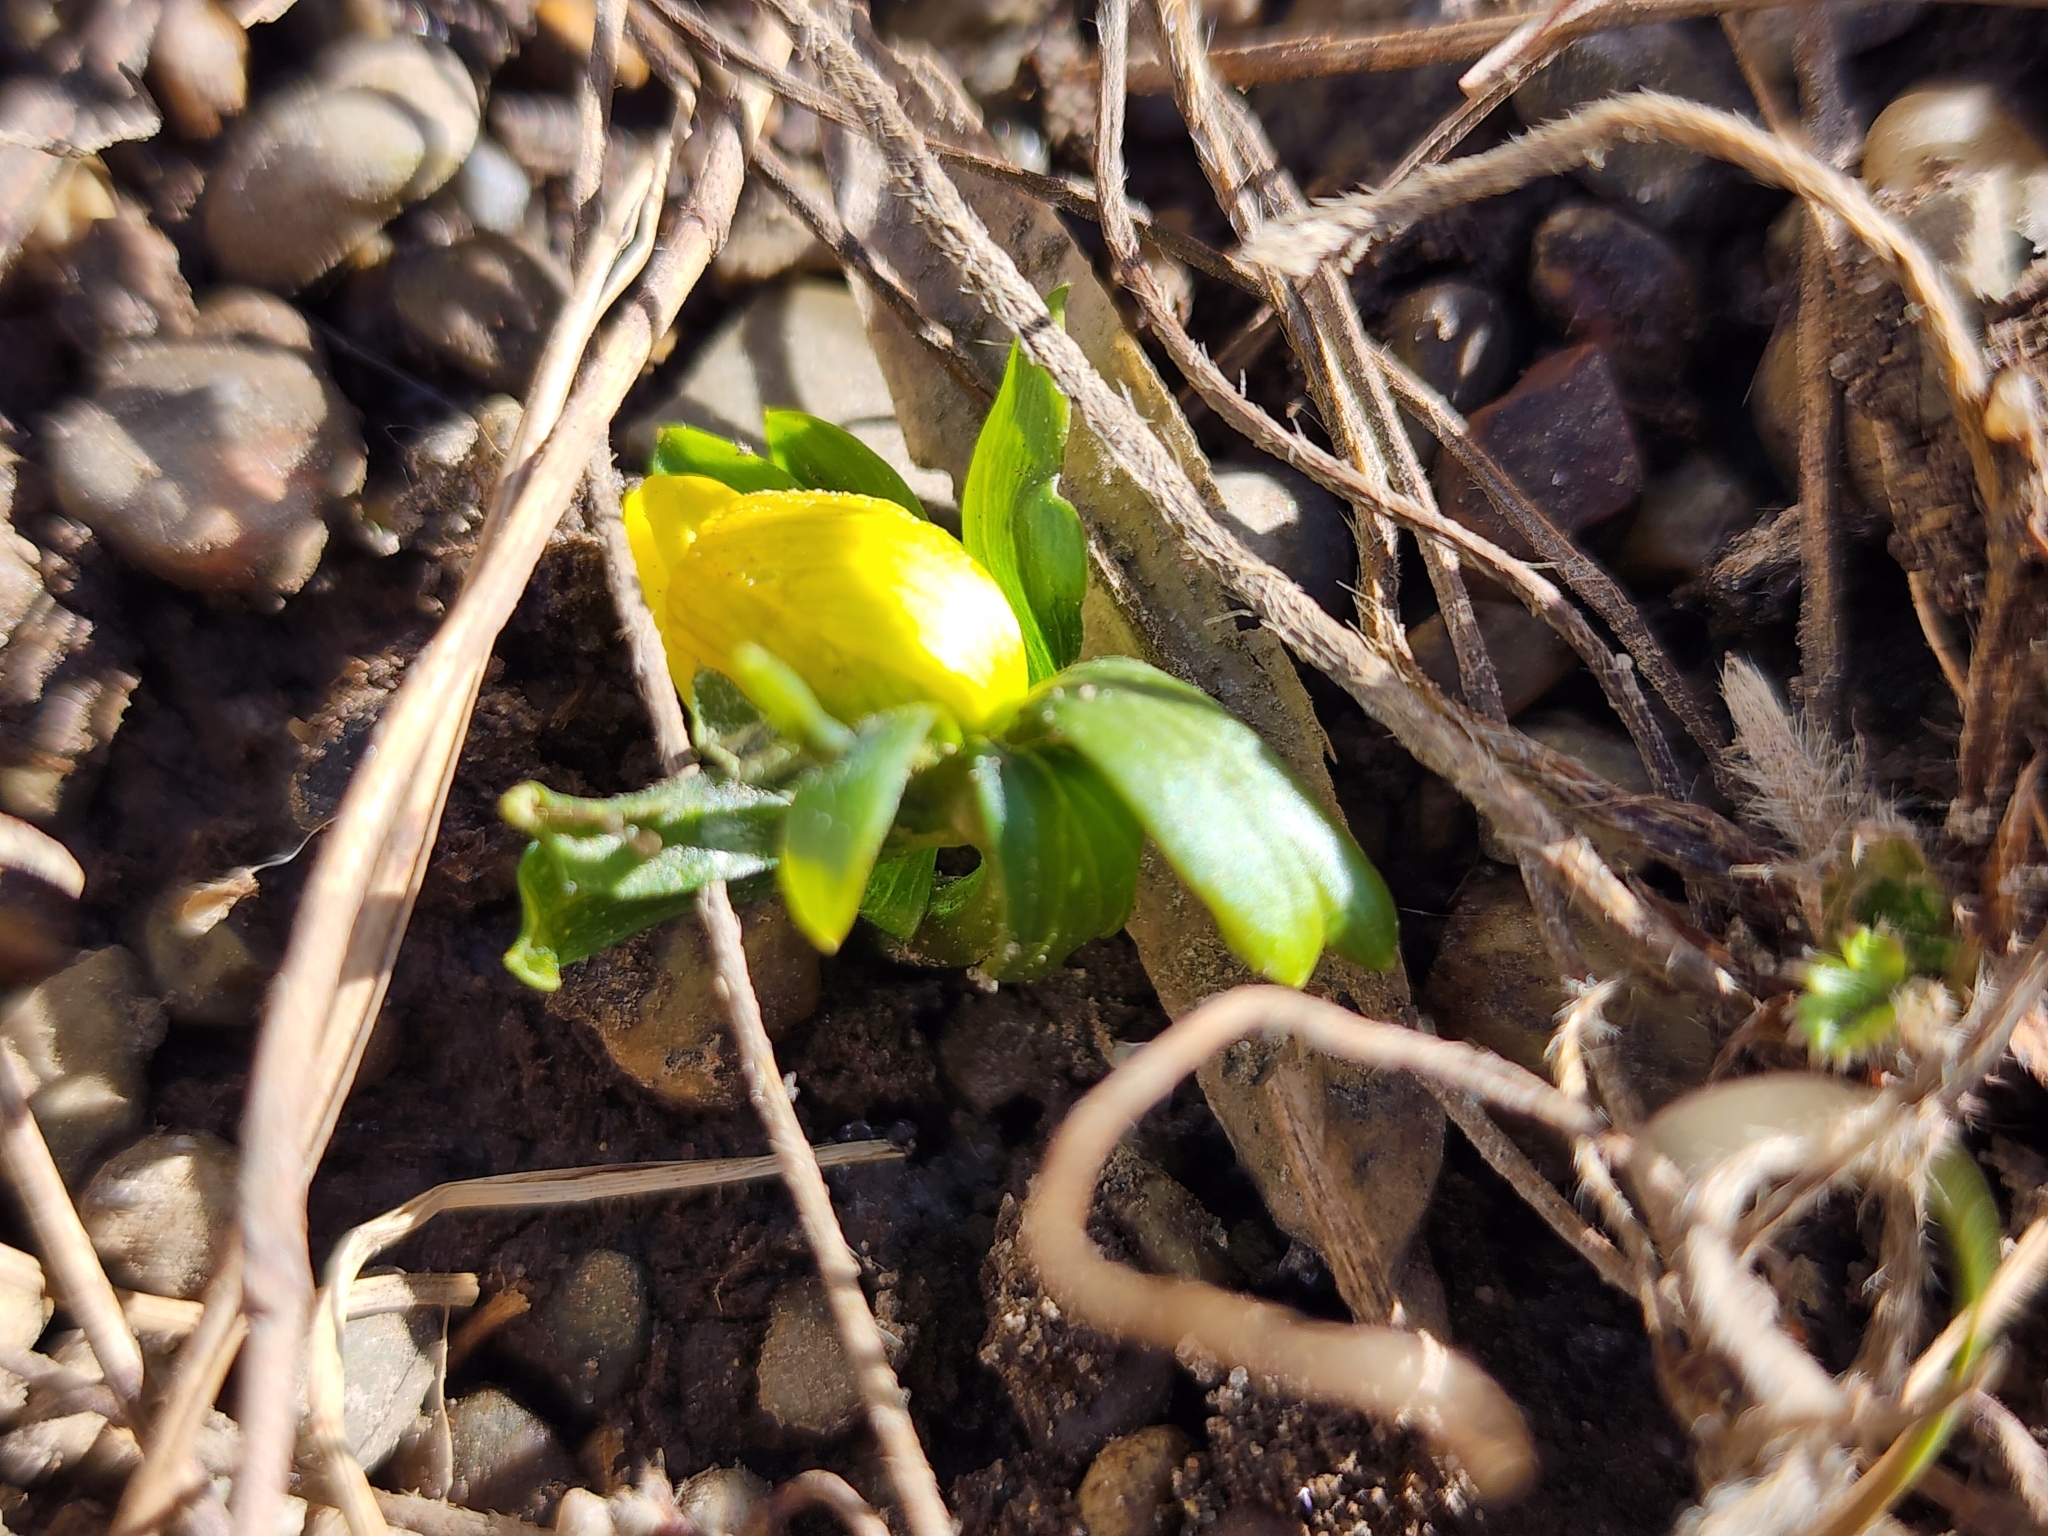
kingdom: Plantae
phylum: Tracheophyta
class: Magnoliopsida
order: Ranunculales
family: Ranunculaceae
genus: Eranthis
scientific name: Eranthis hyemalis
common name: Winter aconite
